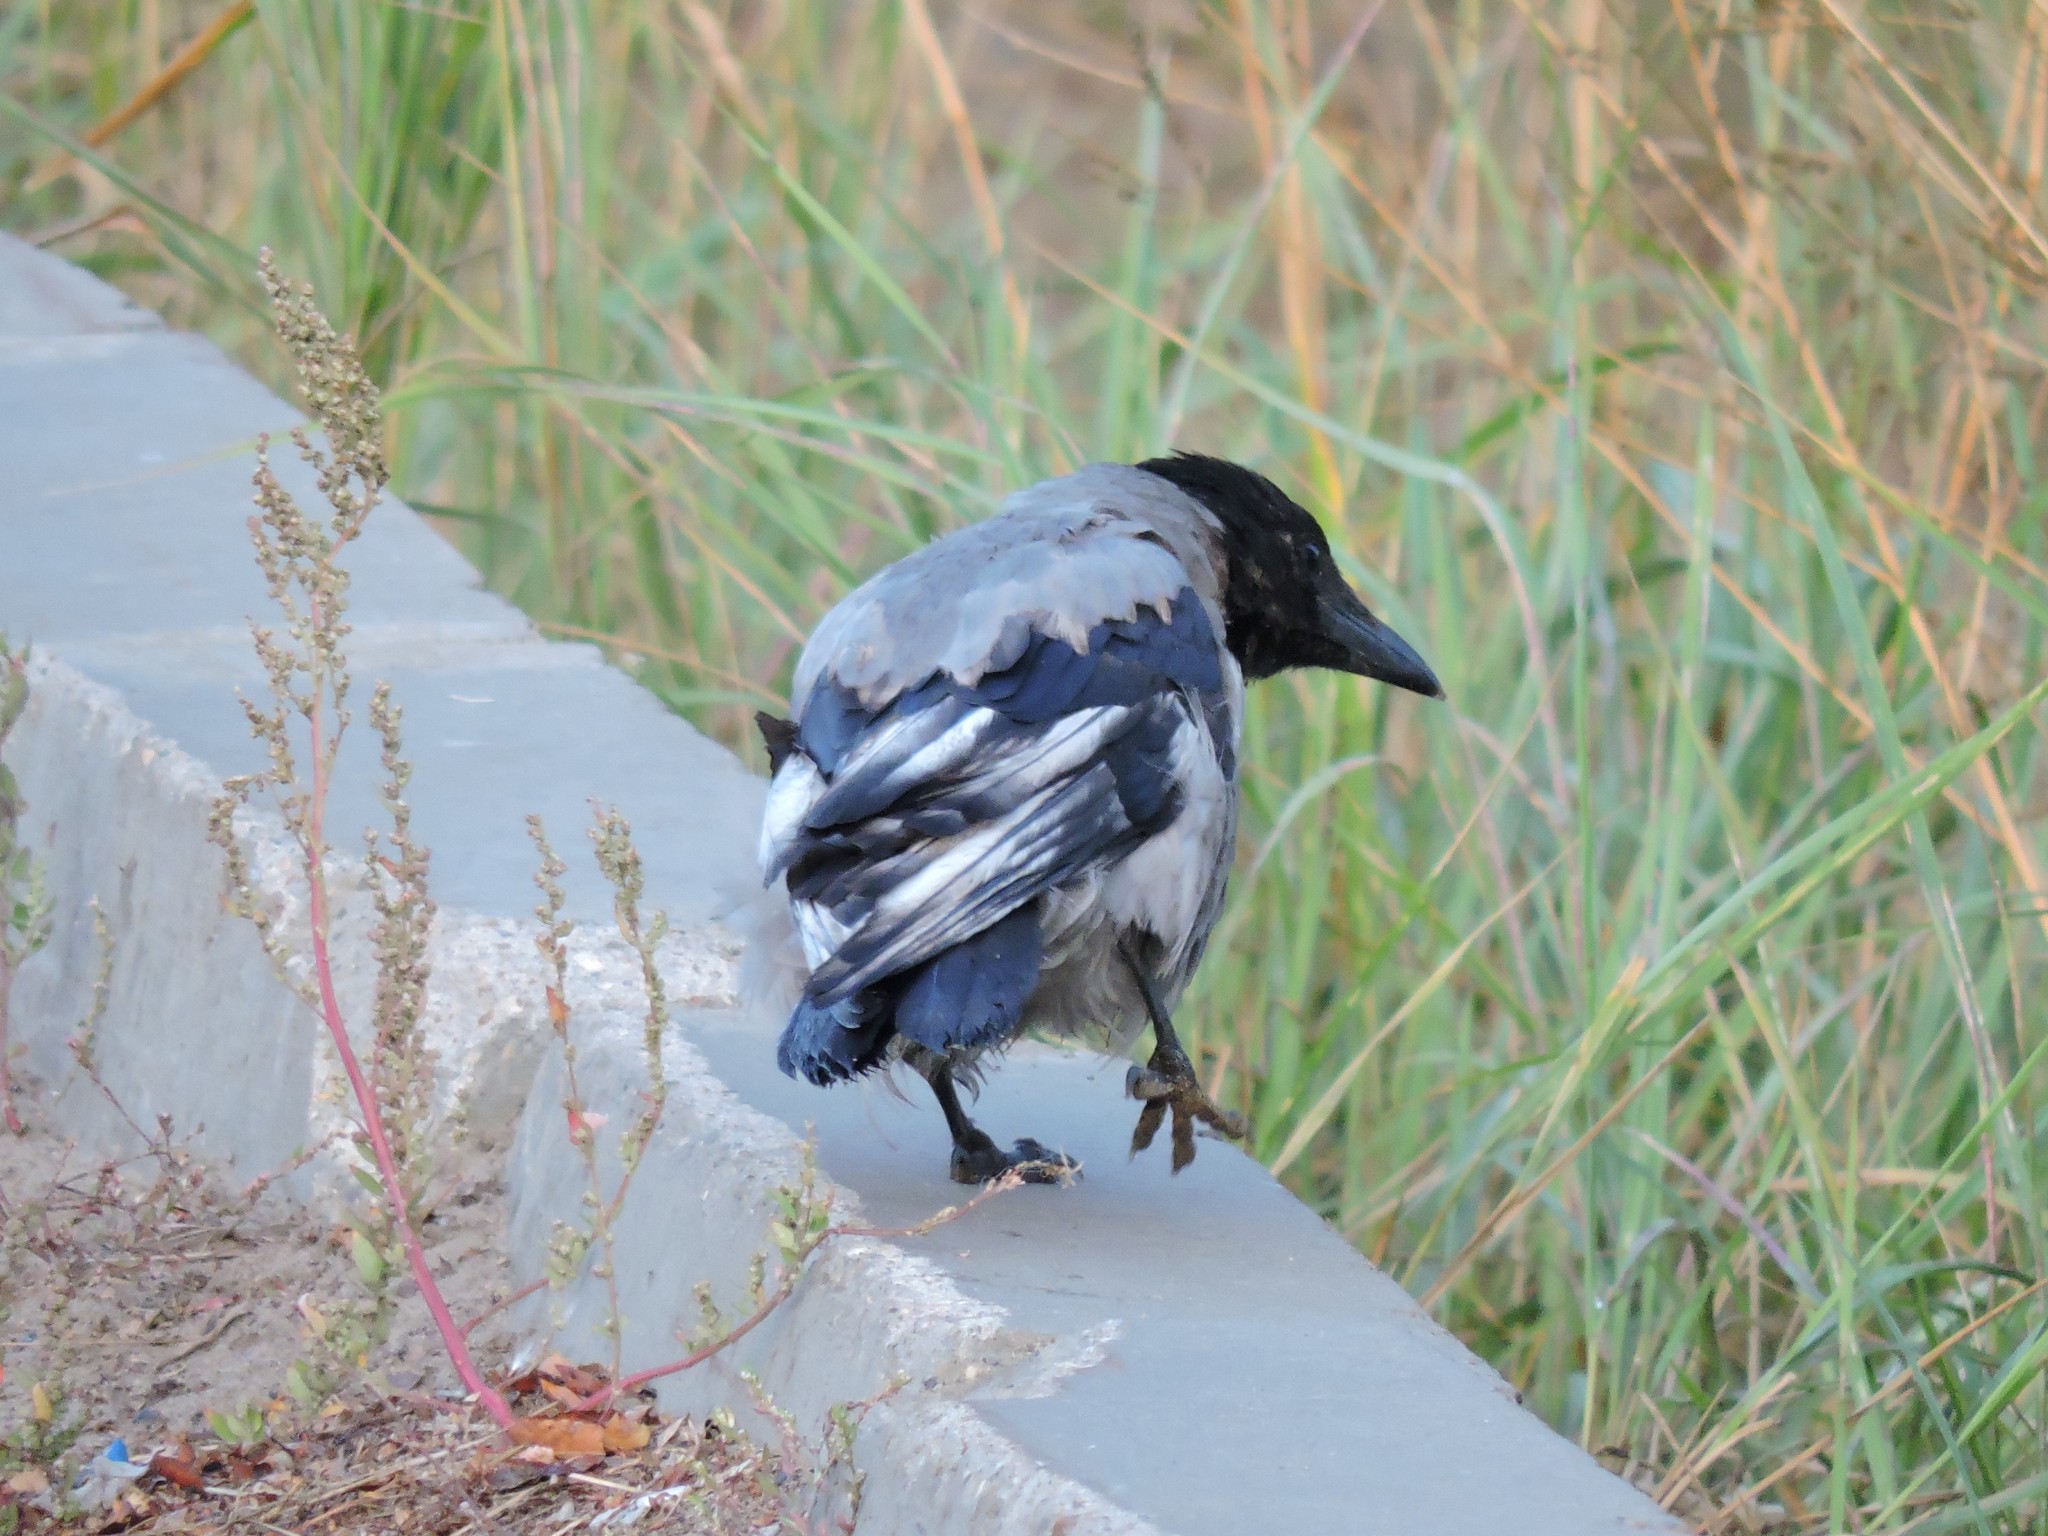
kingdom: Animalia
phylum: Chordata
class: Aves
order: Passeriformes
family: Corvidae
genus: Corvus
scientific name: Corvus cornix
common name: Hooded crow
